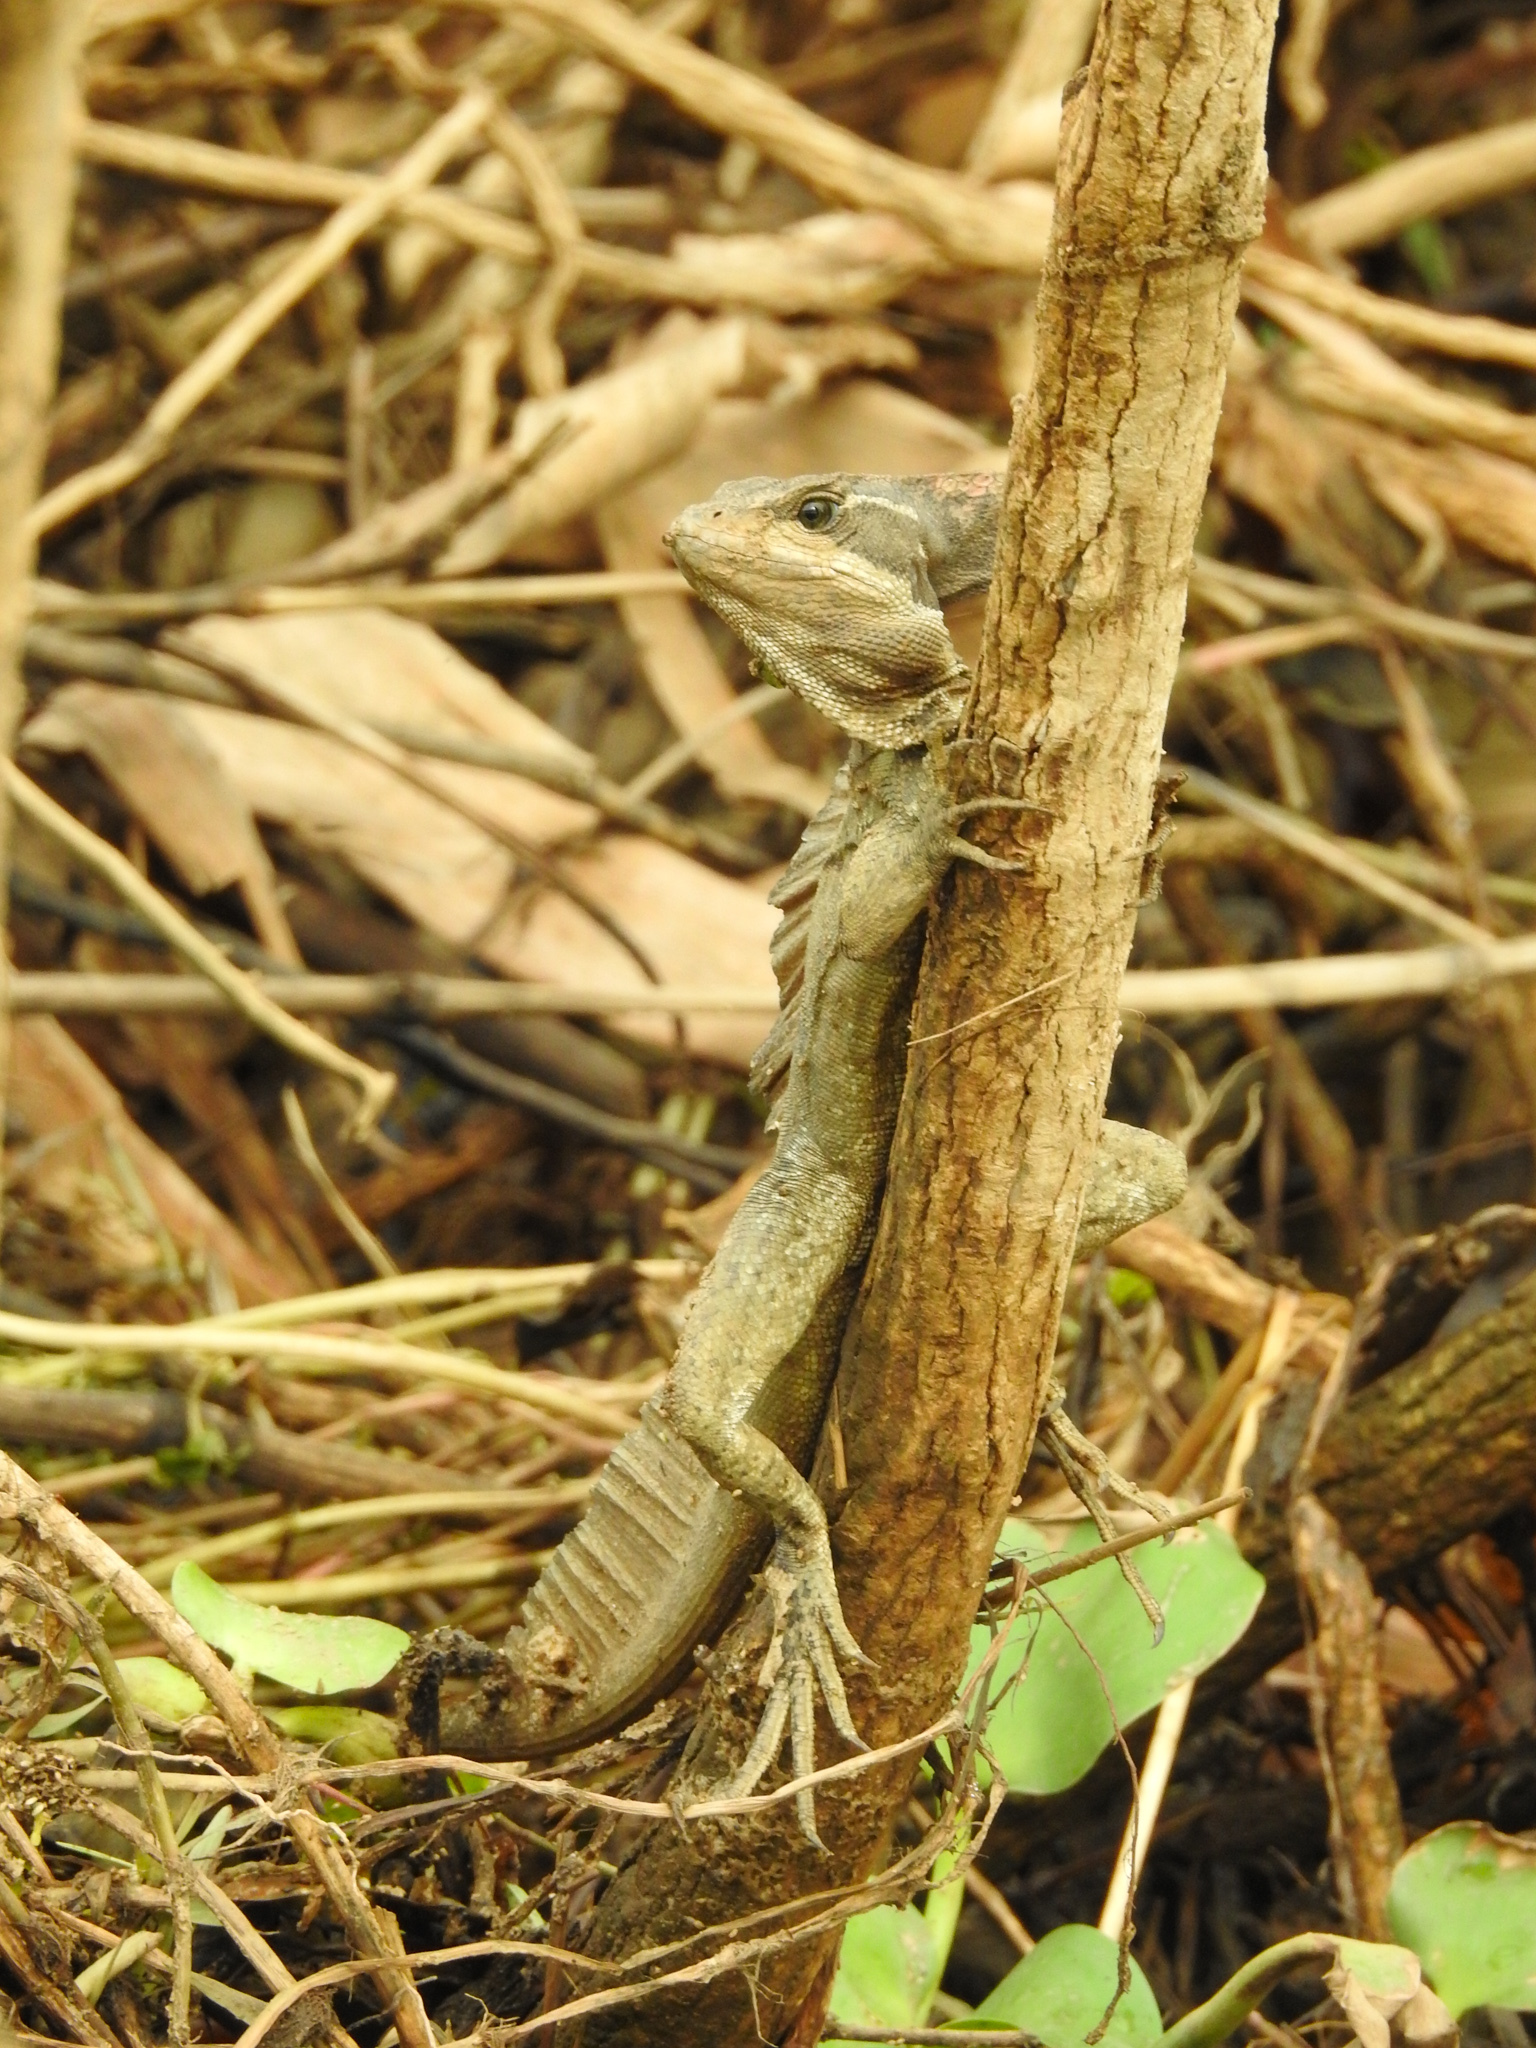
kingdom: Animalia
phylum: Chordata
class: Squamata
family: Corytophanidae
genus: Basiliscus
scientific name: Basiliscus basiliscus
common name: Common basilisk
